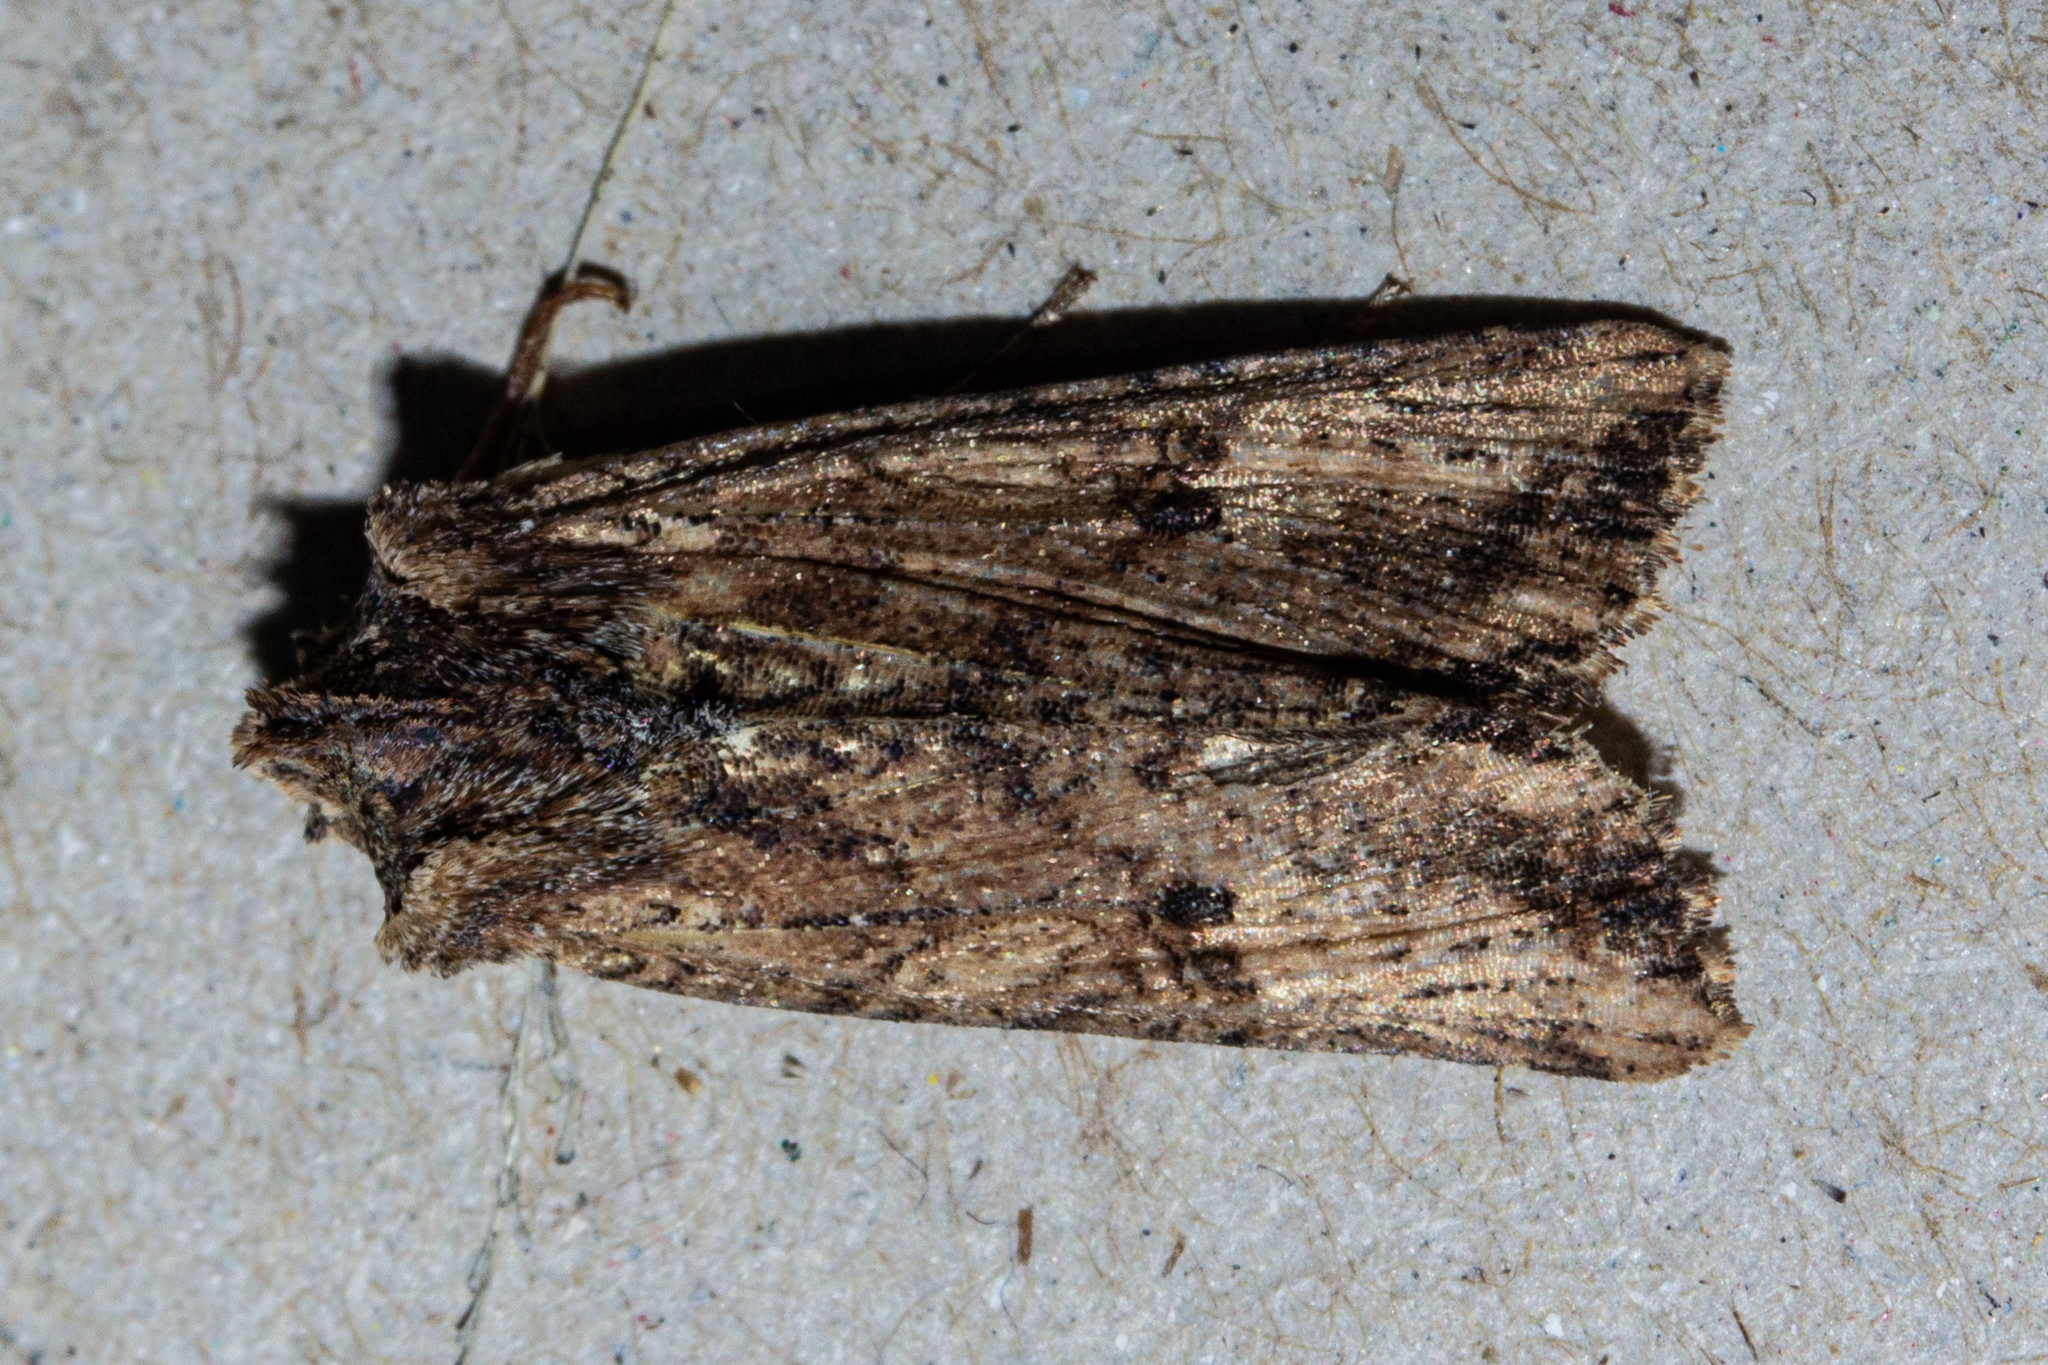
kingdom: Animalia
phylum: Arthropoda
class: Insecta
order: Lepidoptera
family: Noctuidae
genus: Meterana
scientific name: Meterana coeleno
